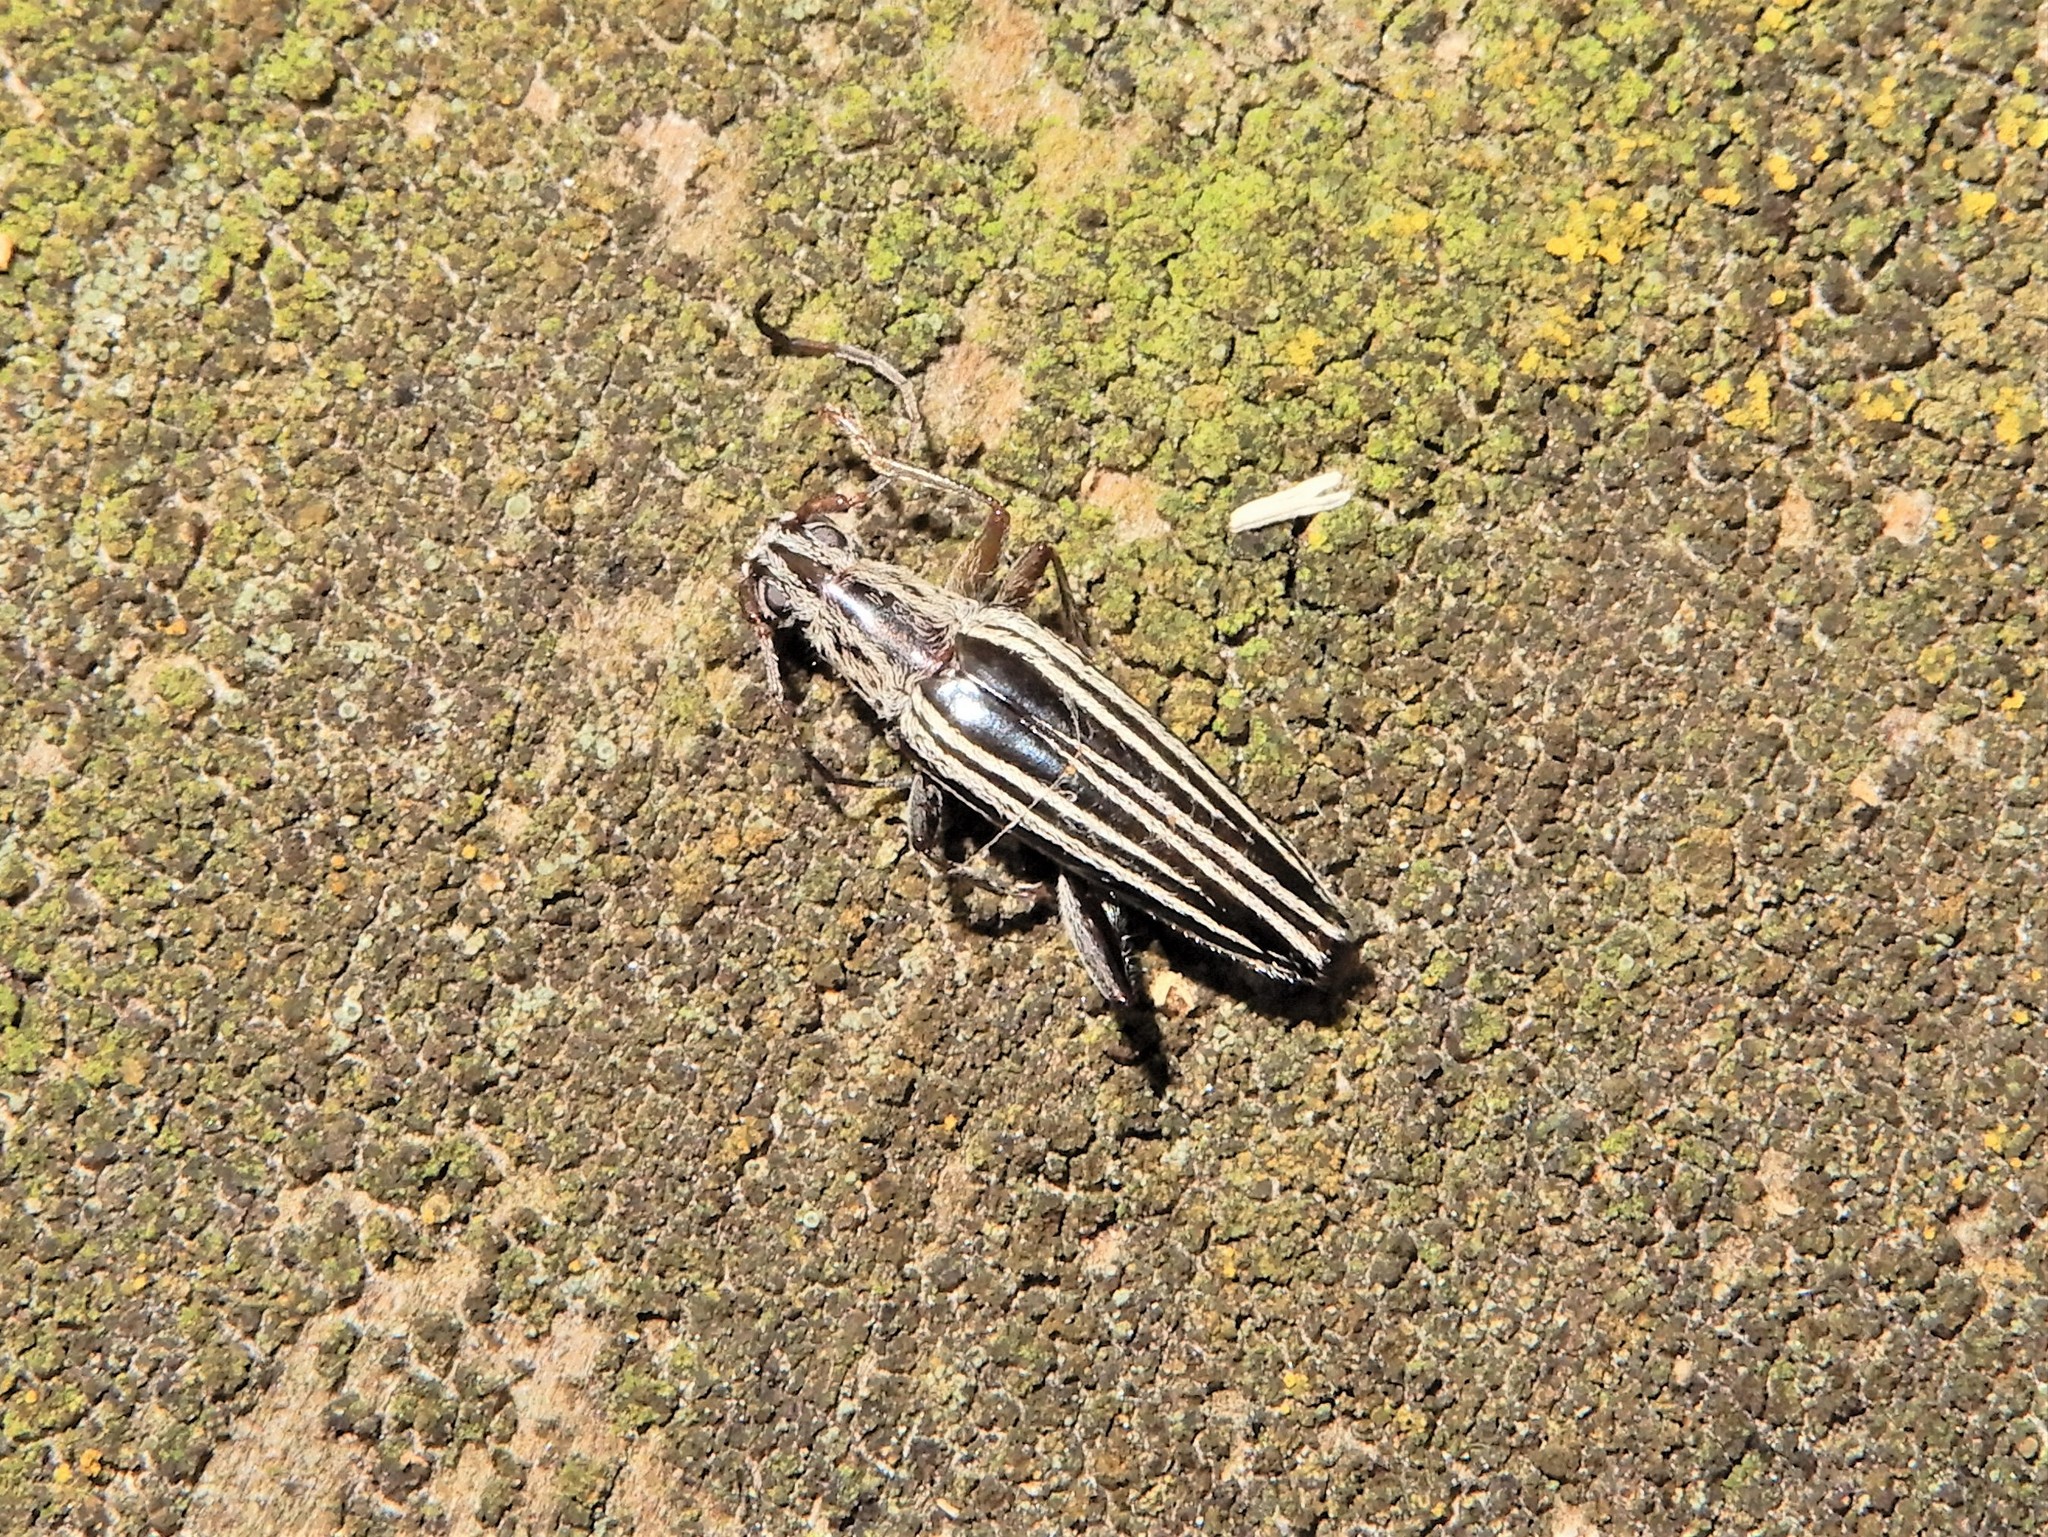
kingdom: Animalia
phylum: Arthropoda
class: Insecta
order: Coleoptera
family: Cerambycidae
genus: Coptomma
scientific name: Coptomma sulcatum
